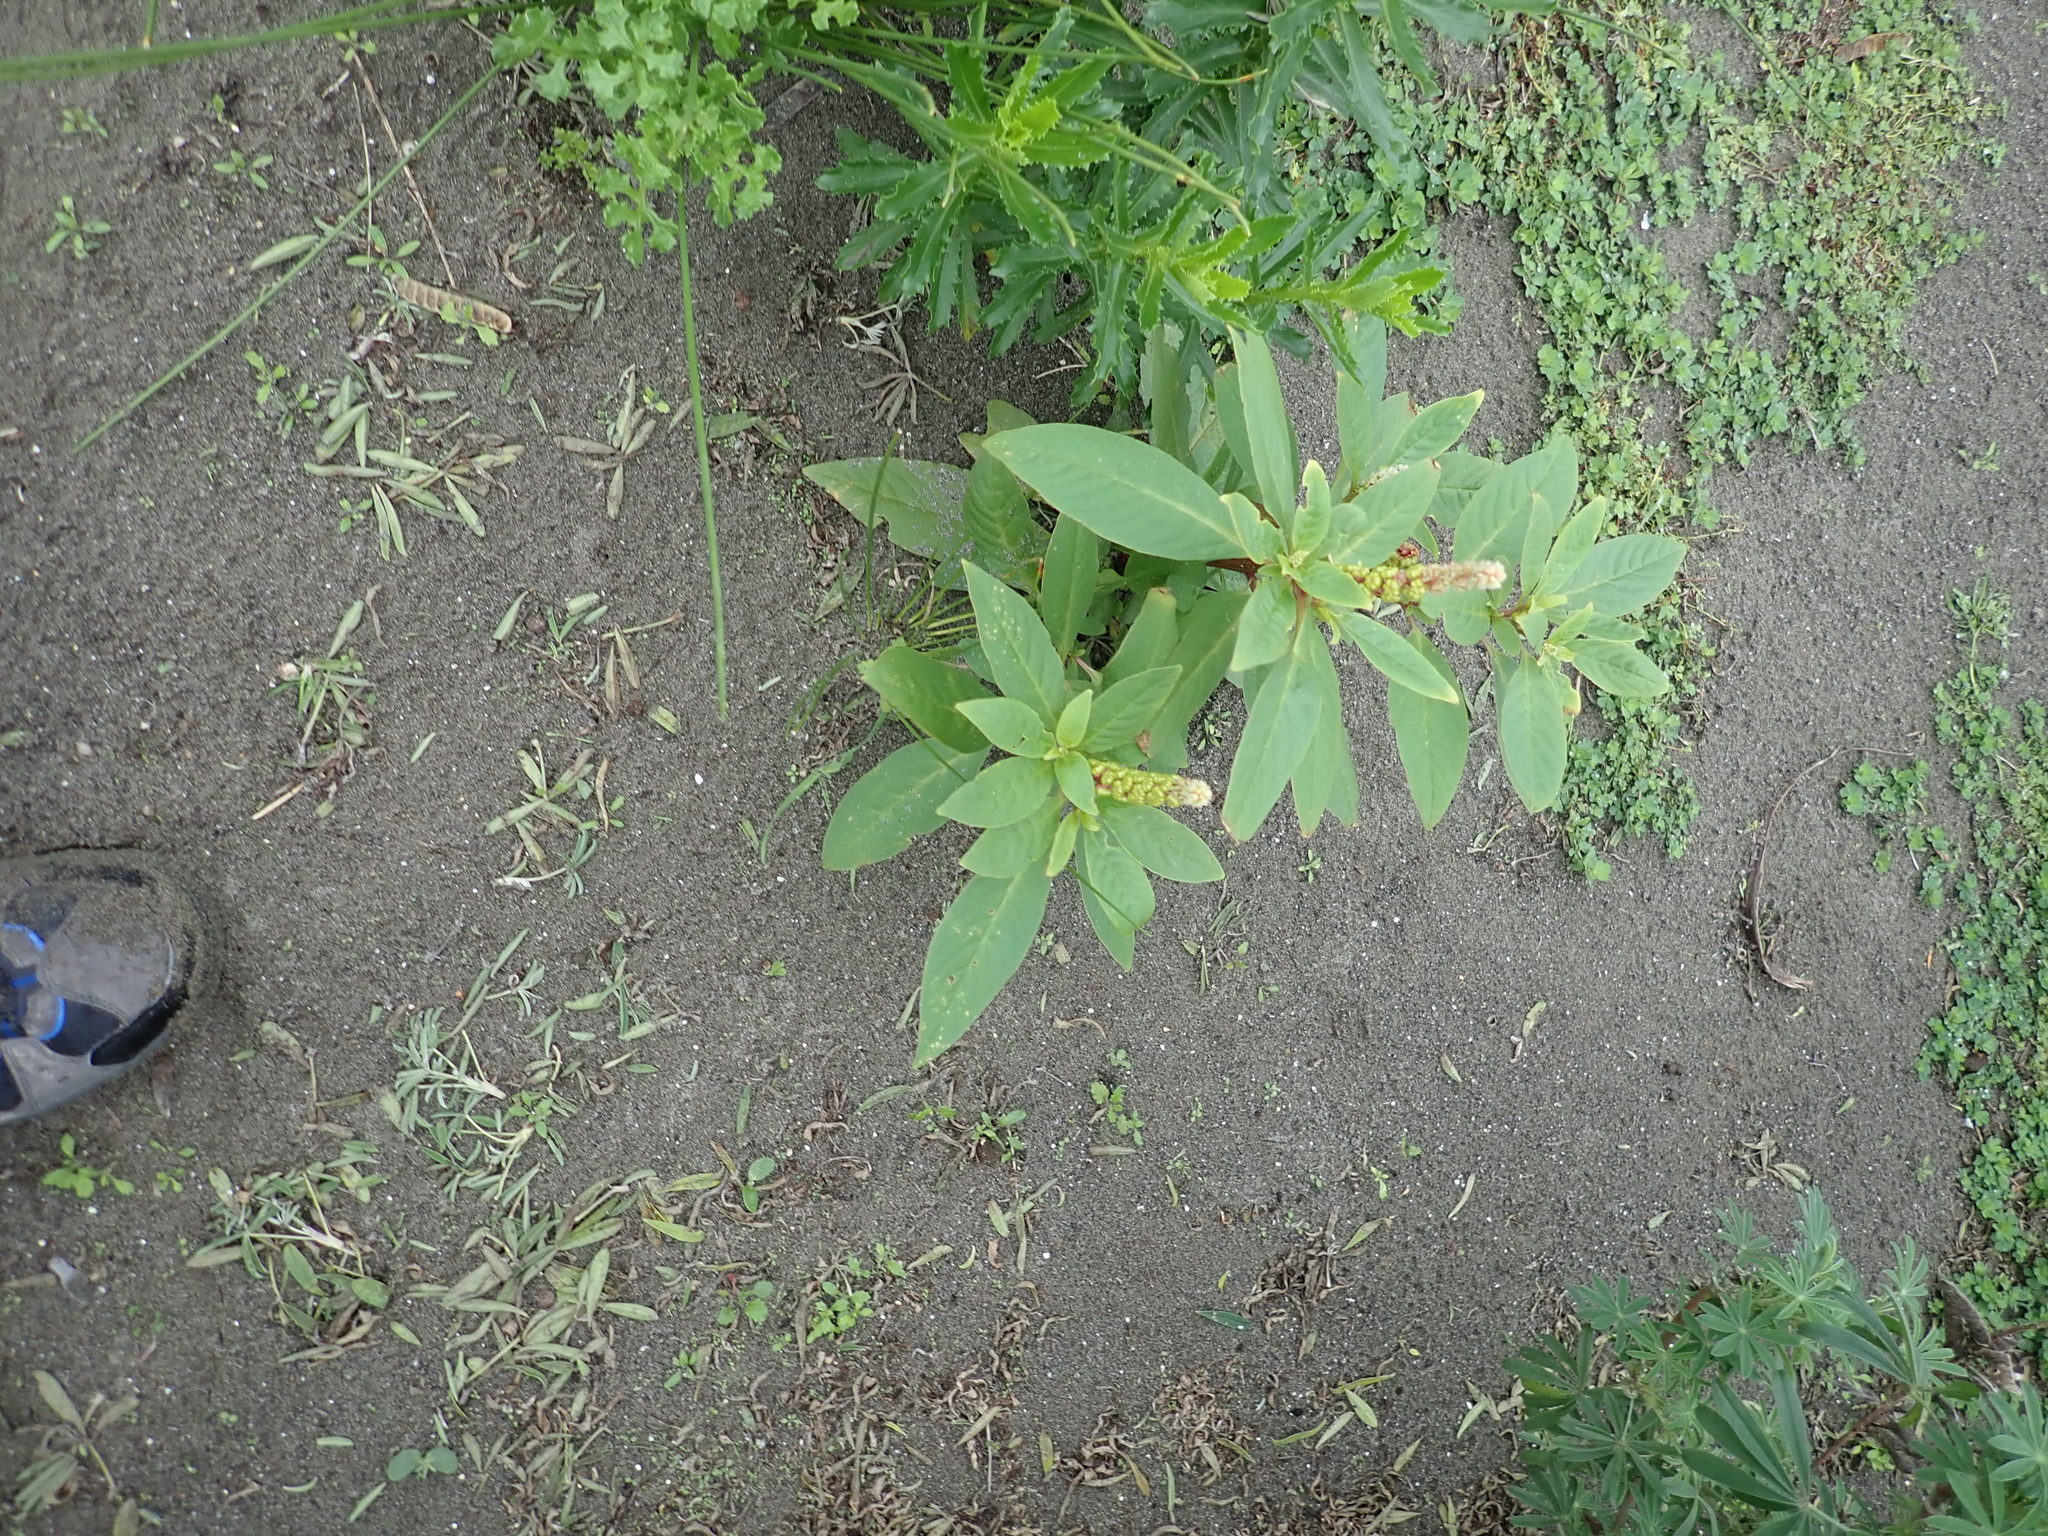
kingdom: Plantae
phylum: Tracheophyta
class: Magnoliopsida
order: Caryophyllales
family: Phytolaccaceae
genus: Phytolacca
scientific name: Phytolacca icosandra
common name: Button pokeweed
